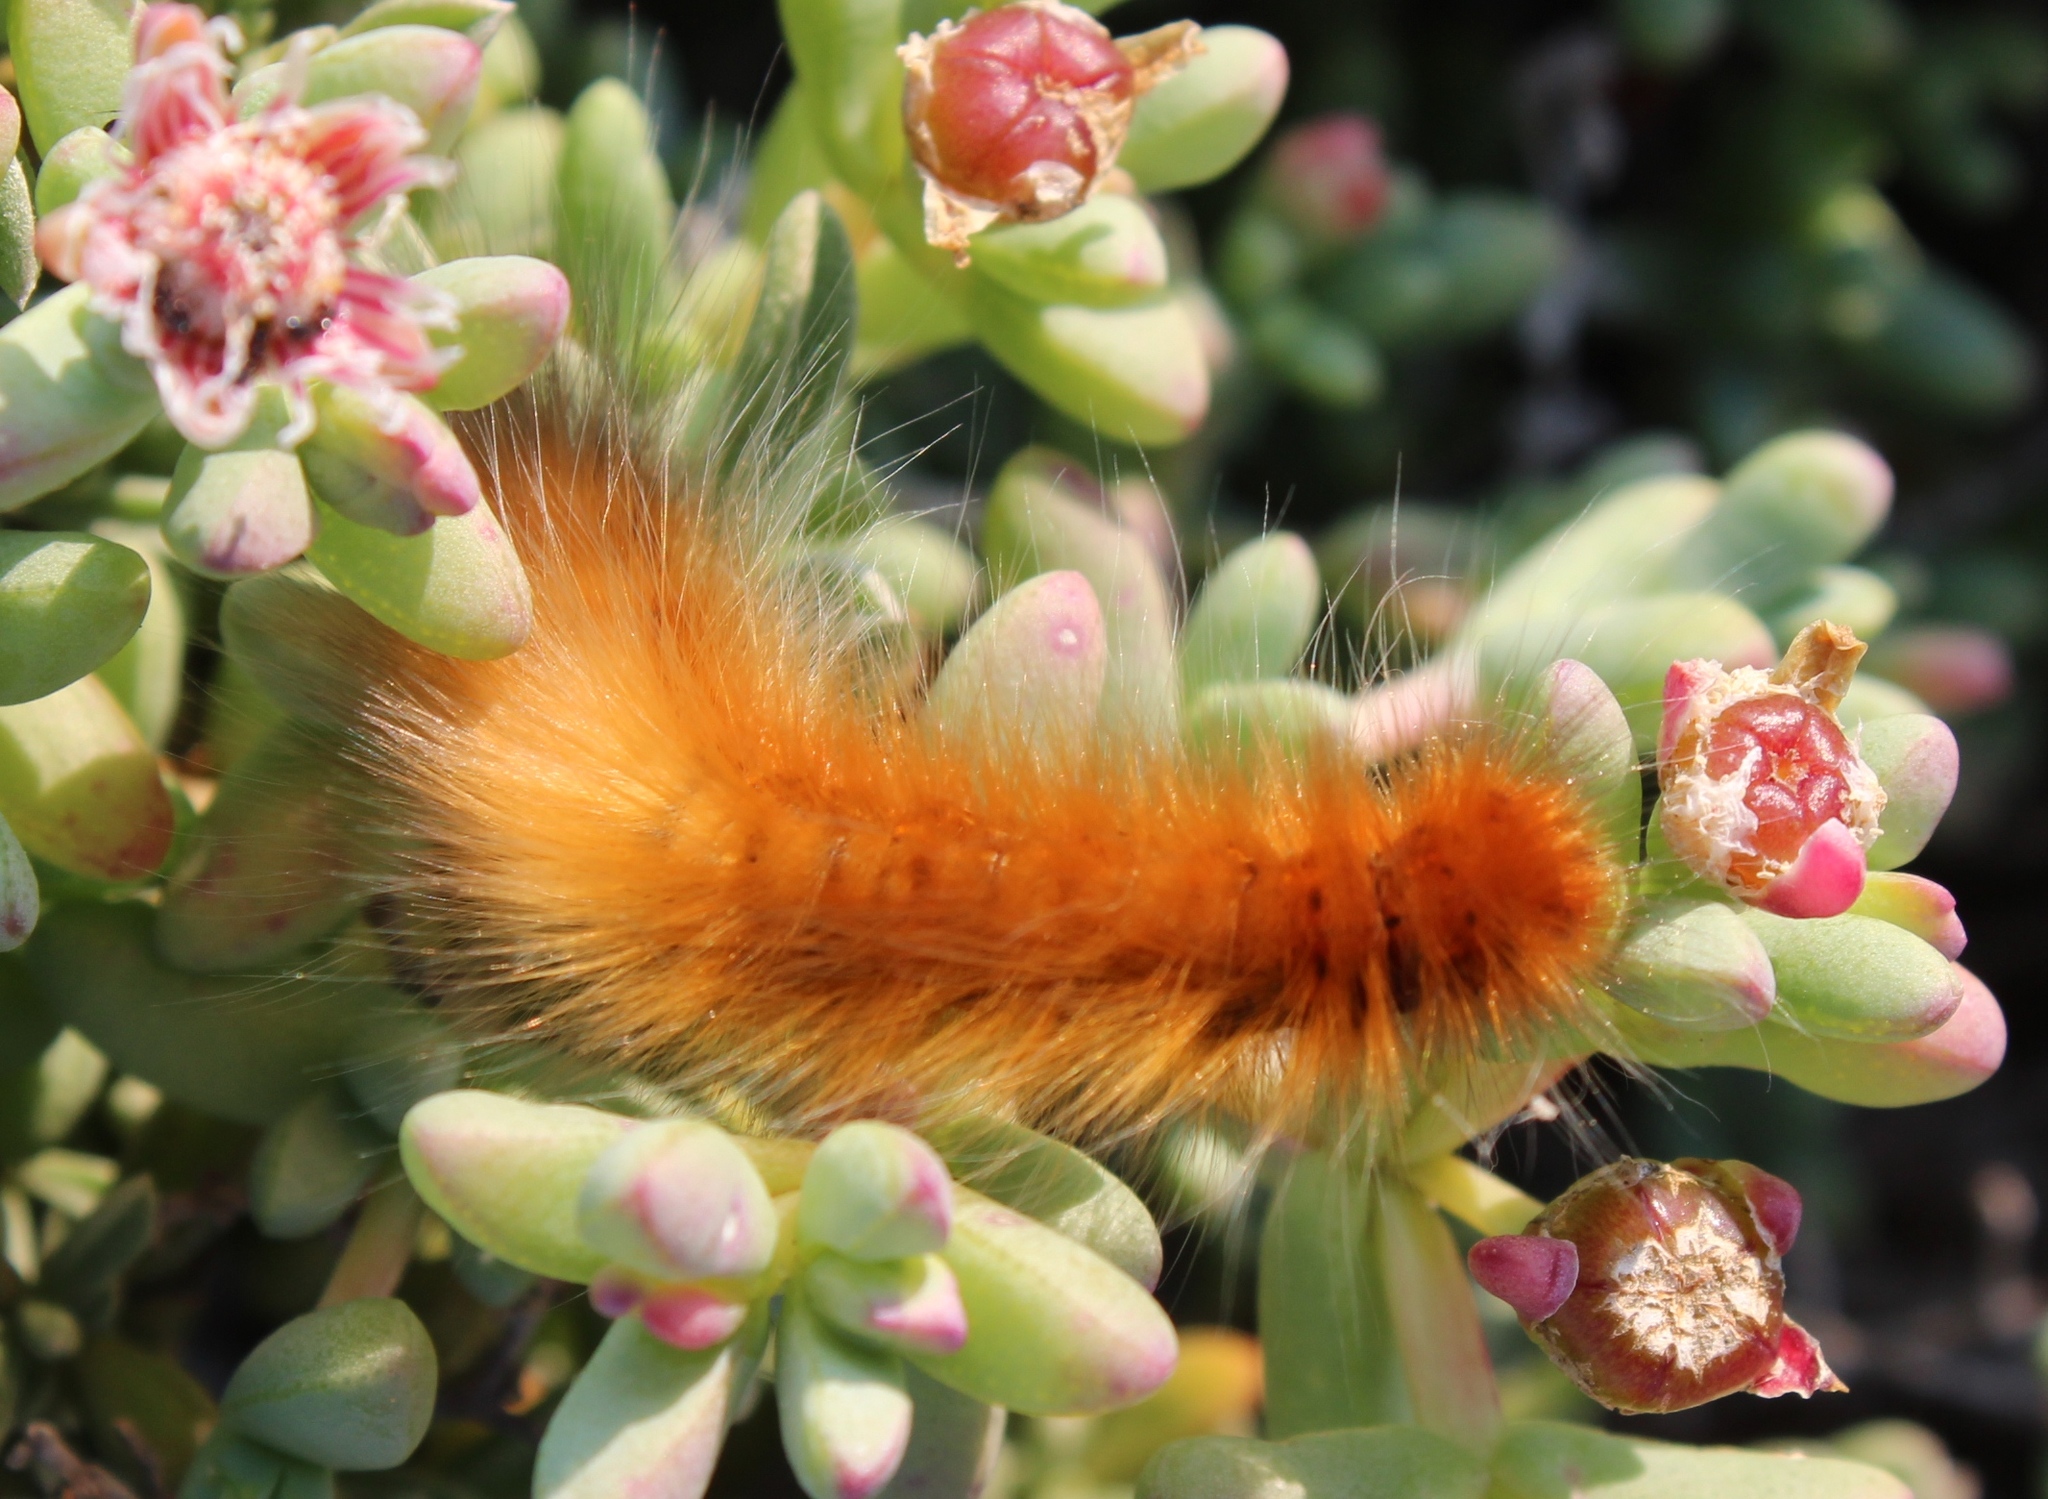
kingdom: Animalia
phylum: Arthropoda
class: Insecta
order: Lepidoptera
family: Lasiocampidae
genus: Mesocelis
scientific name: Mesocelis monticola
